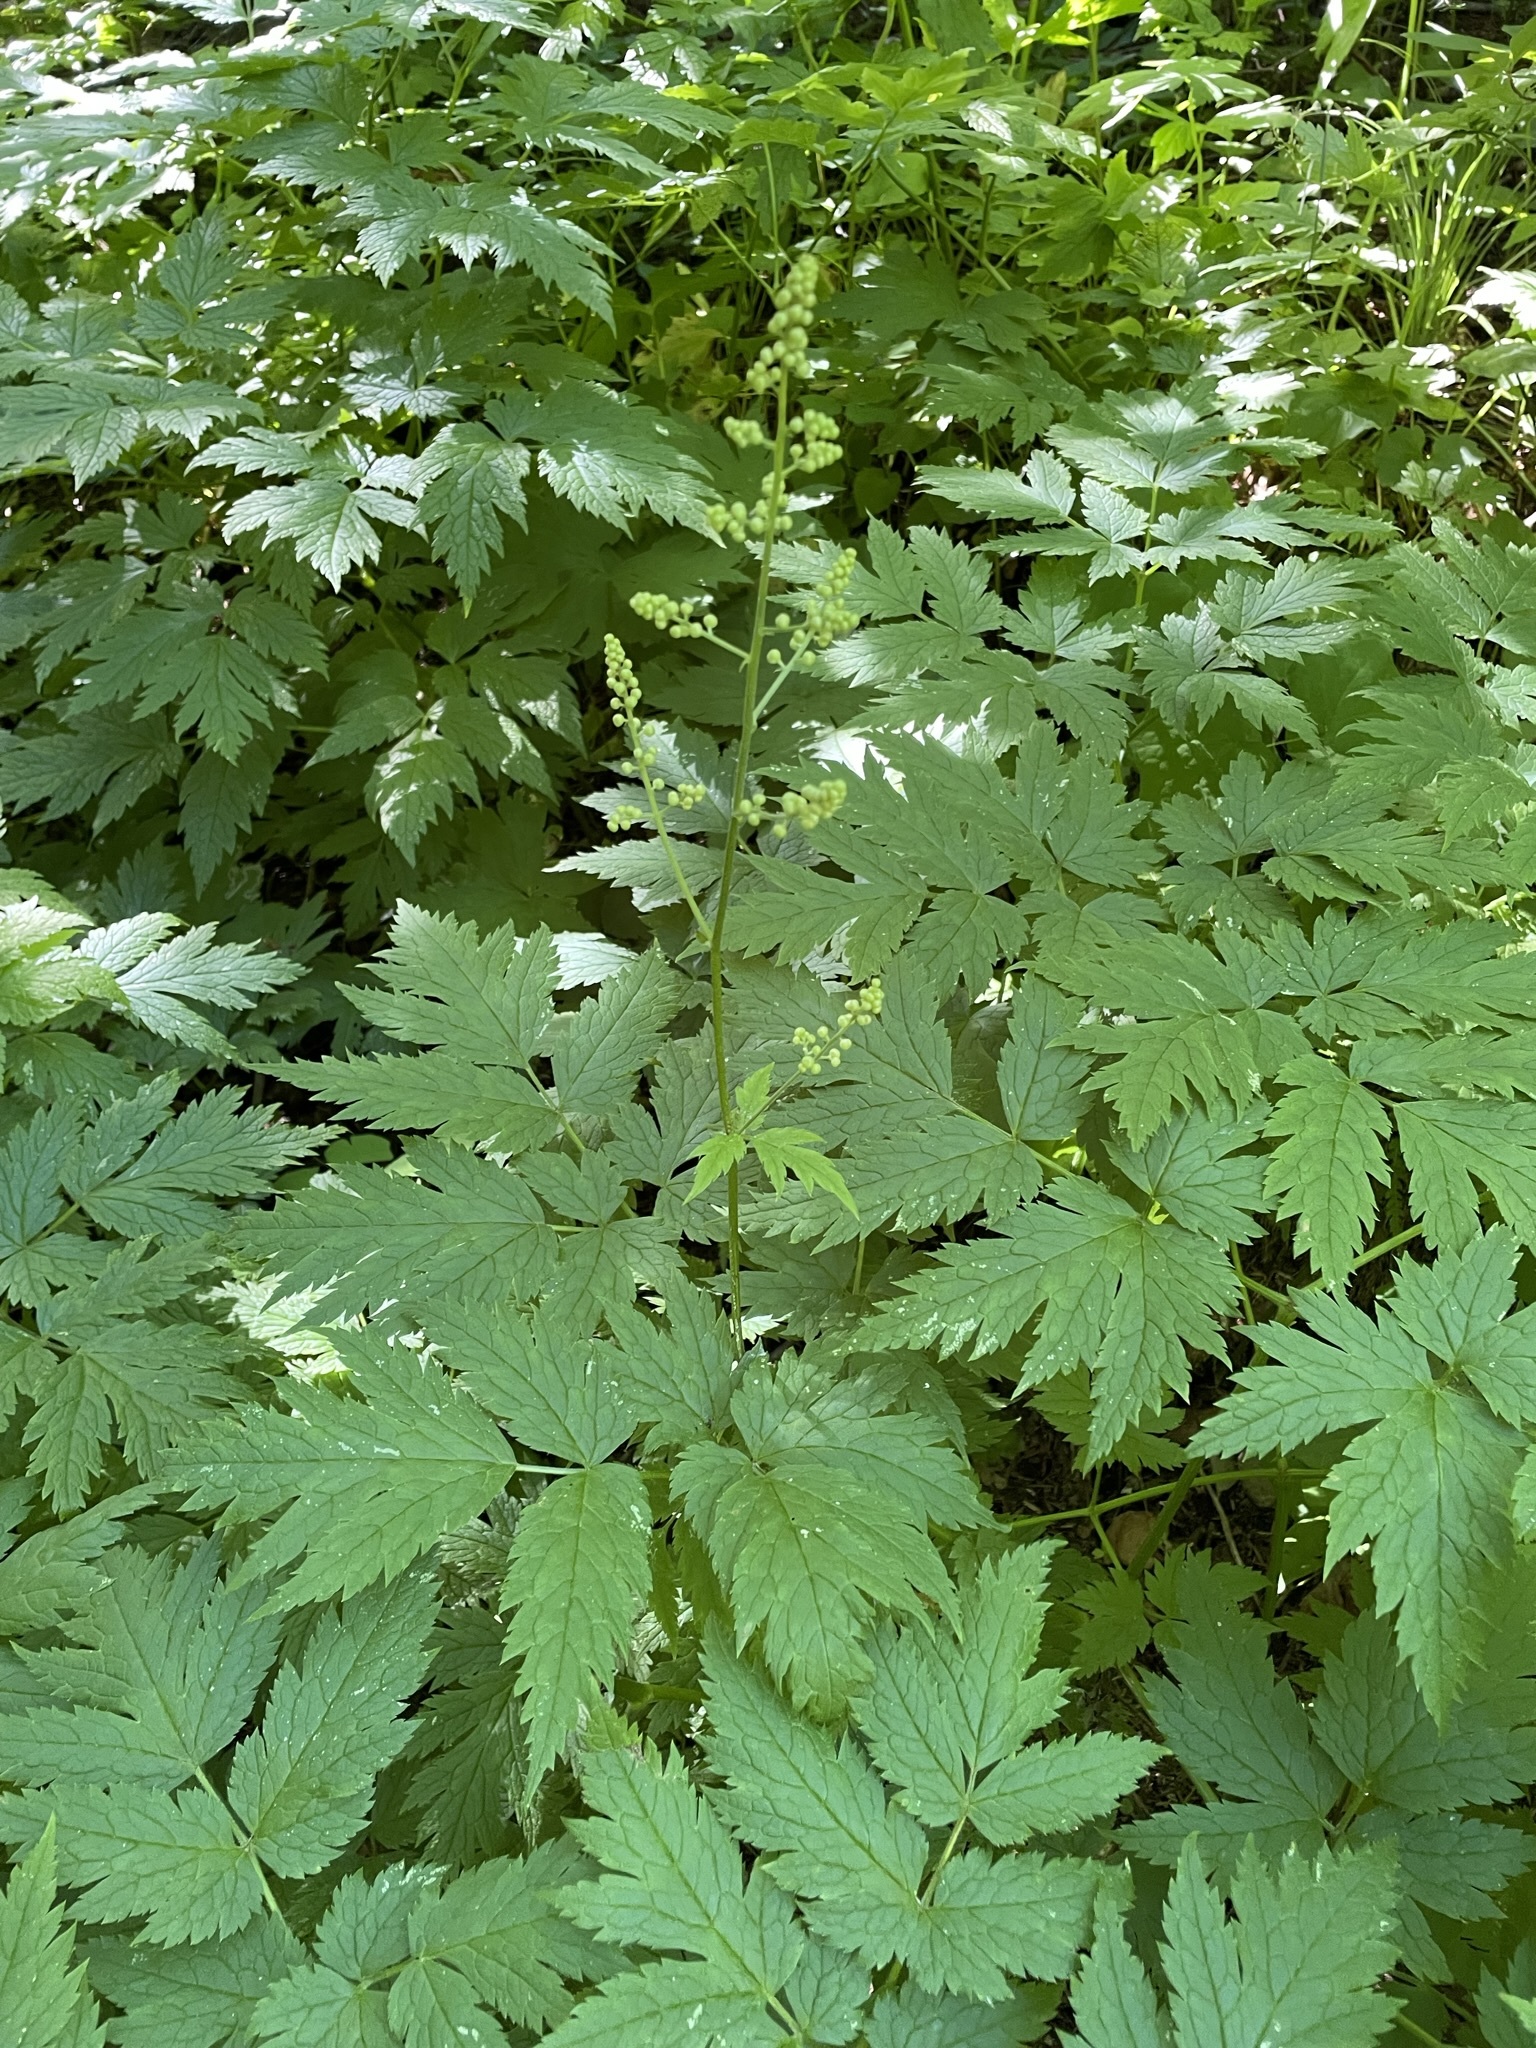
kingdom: Plantae
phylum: Tracheophyta
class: Magnoliopsida
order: Ranunculales
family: Ranunculaceae
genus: Actaea
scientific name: Actaea laciniata
